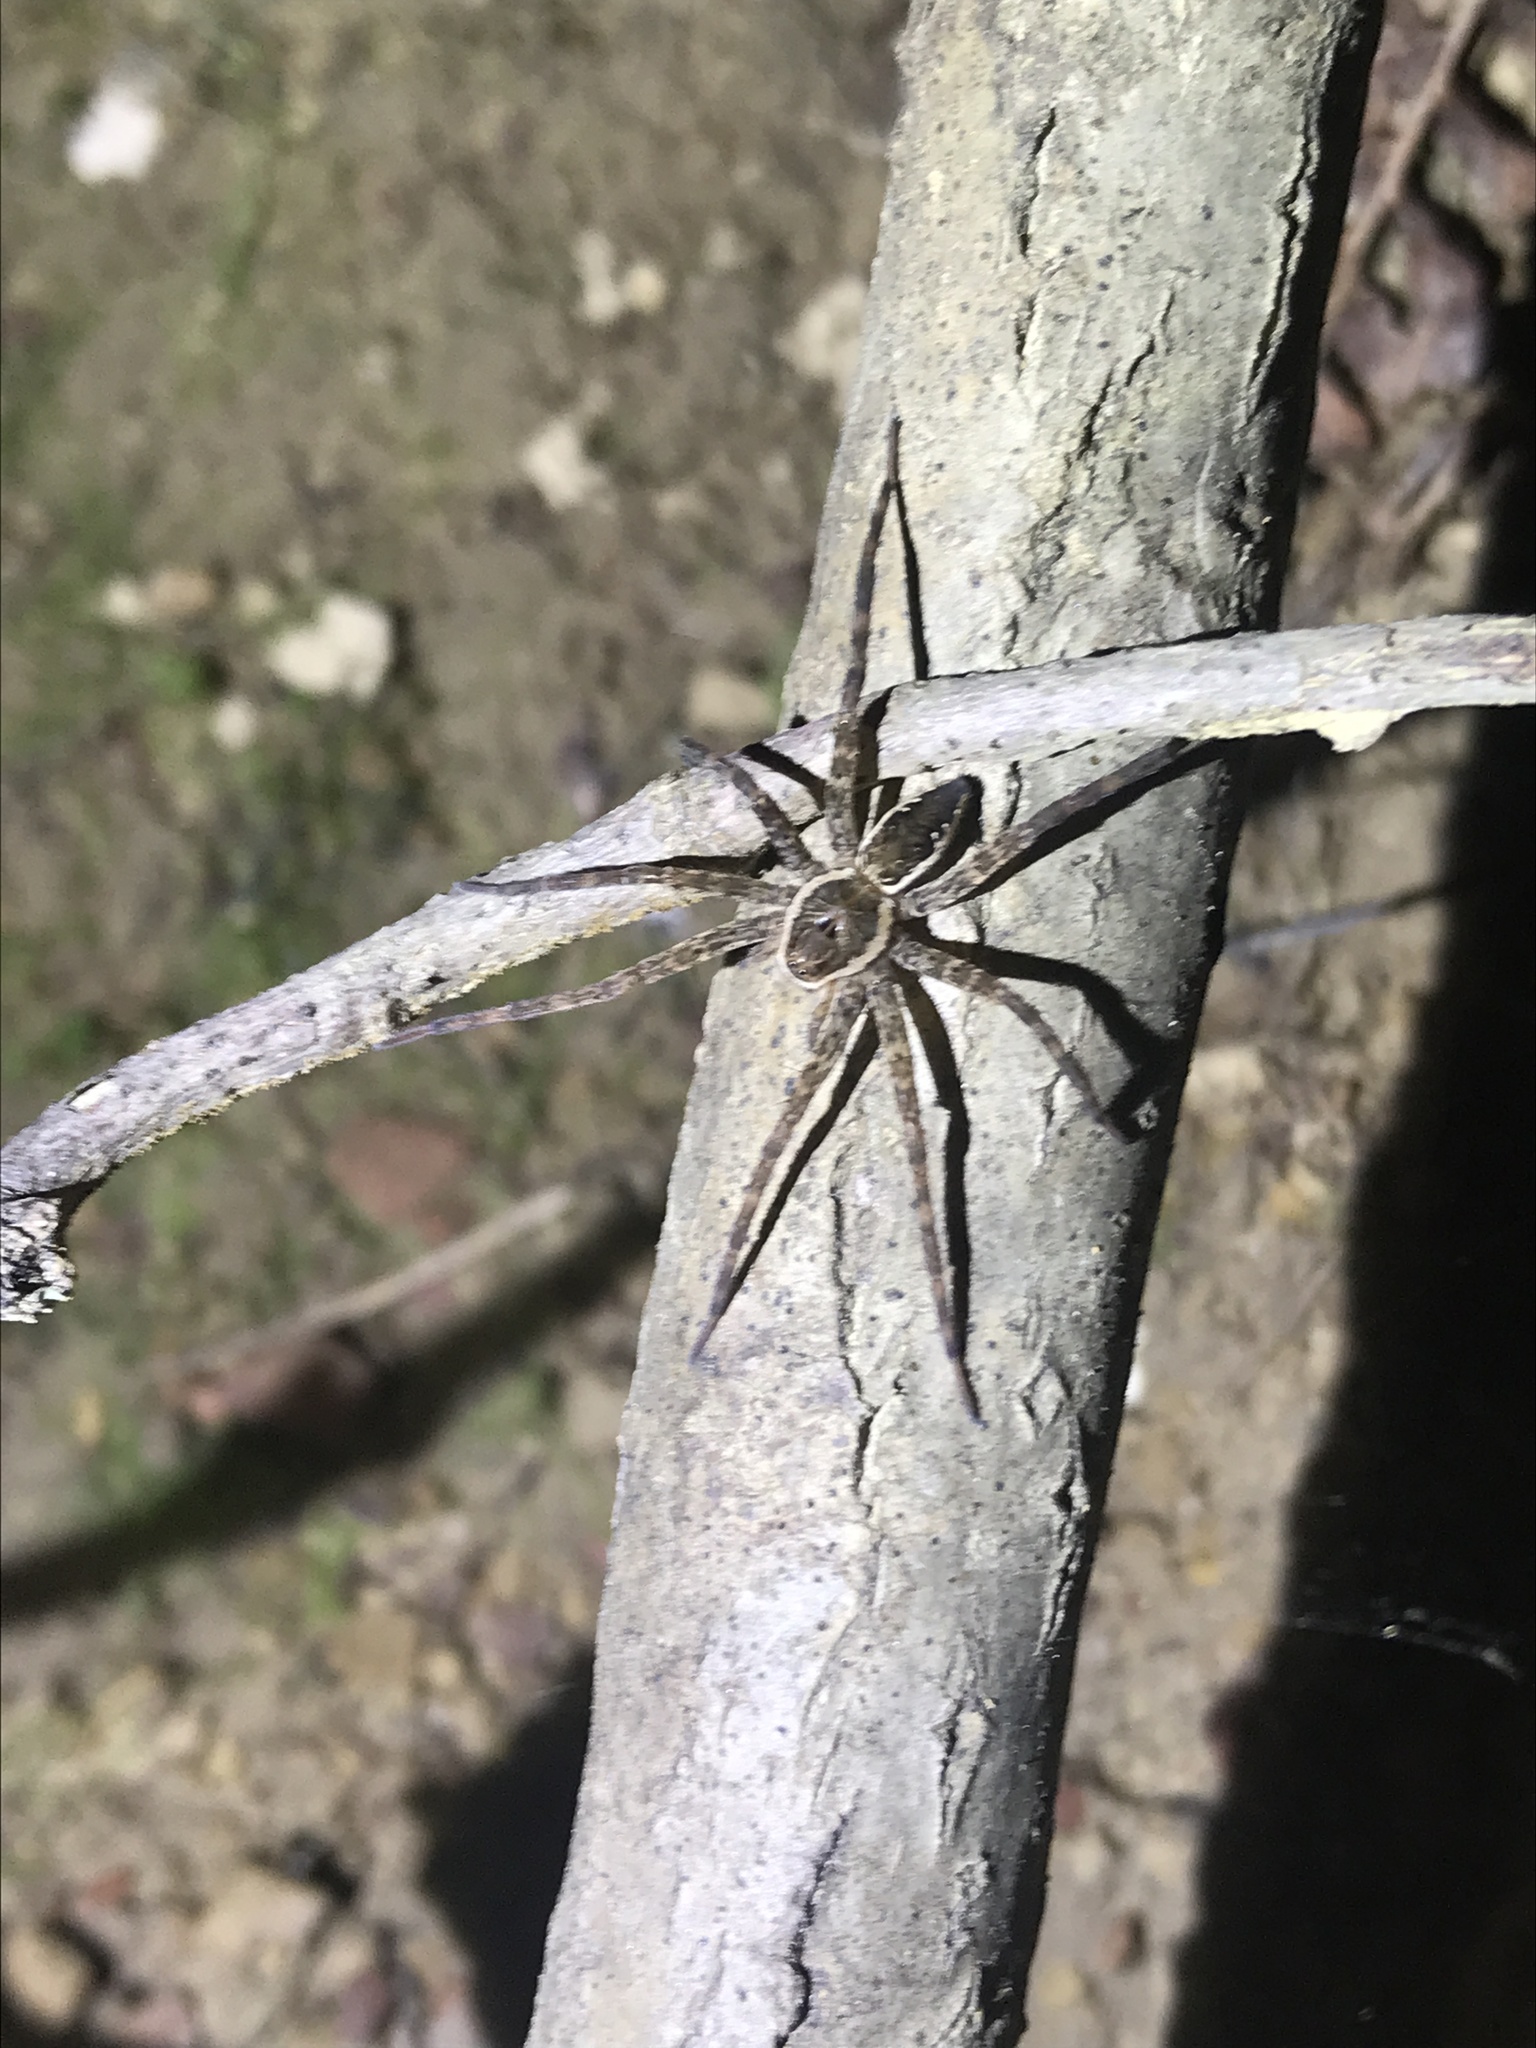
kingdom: Animalia
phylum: Arthropoda
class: Arachnida
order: Araneae
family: Pisauridae
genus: Dolomedes
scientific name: Dolomedes vittatus
